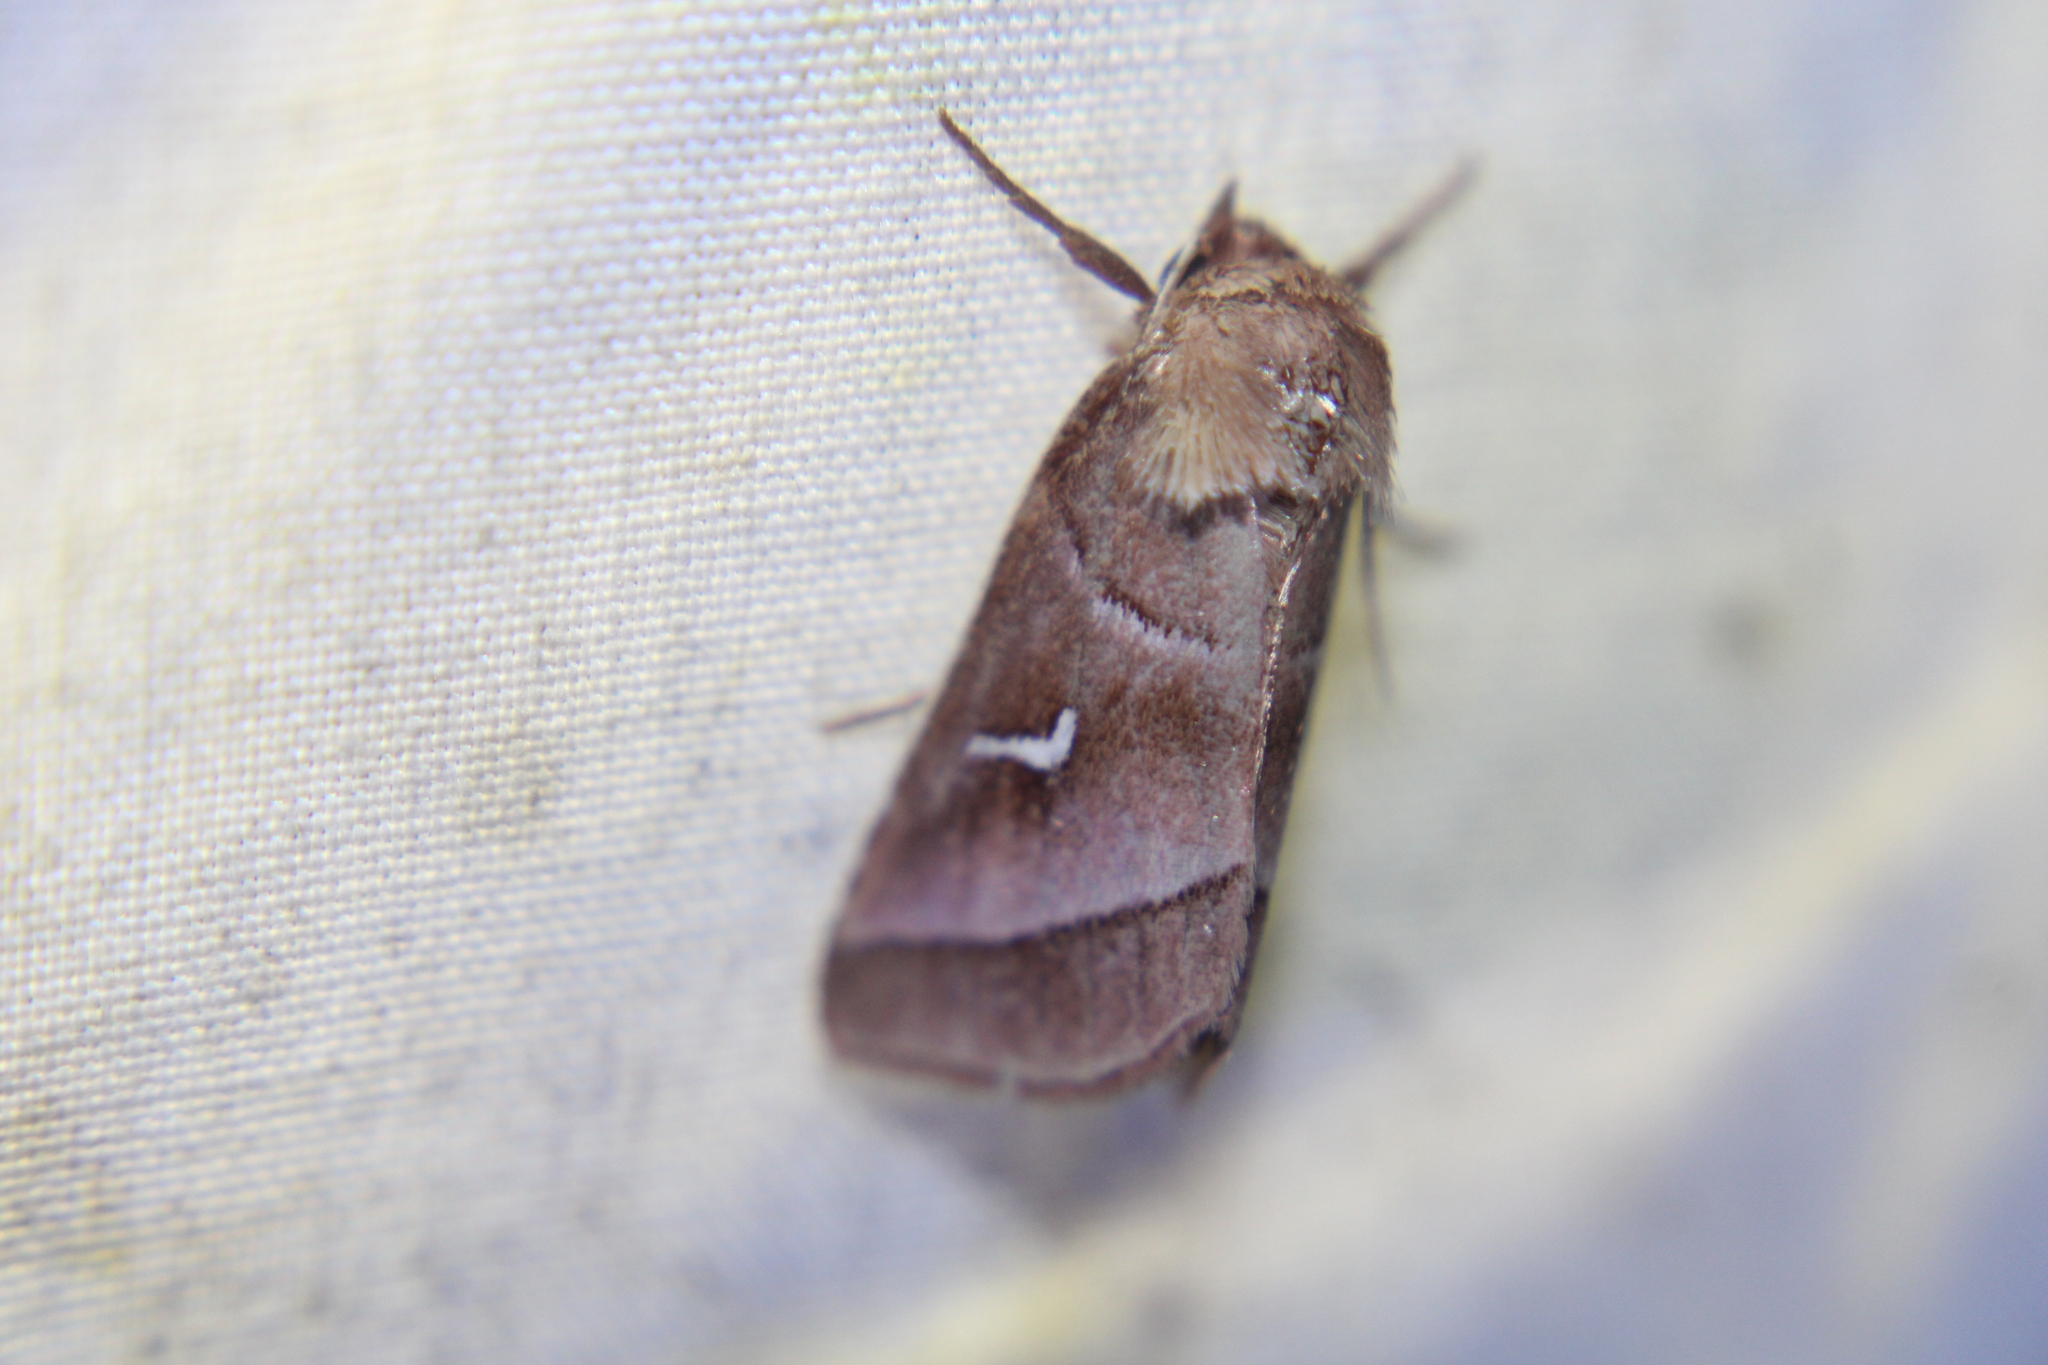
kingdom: Animalia
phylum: Arthropoda
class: Insecta
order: Lepidoptera
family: Noctuidae
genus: Fagitana
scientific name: Fagitana littera
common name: Marsh fern moth
